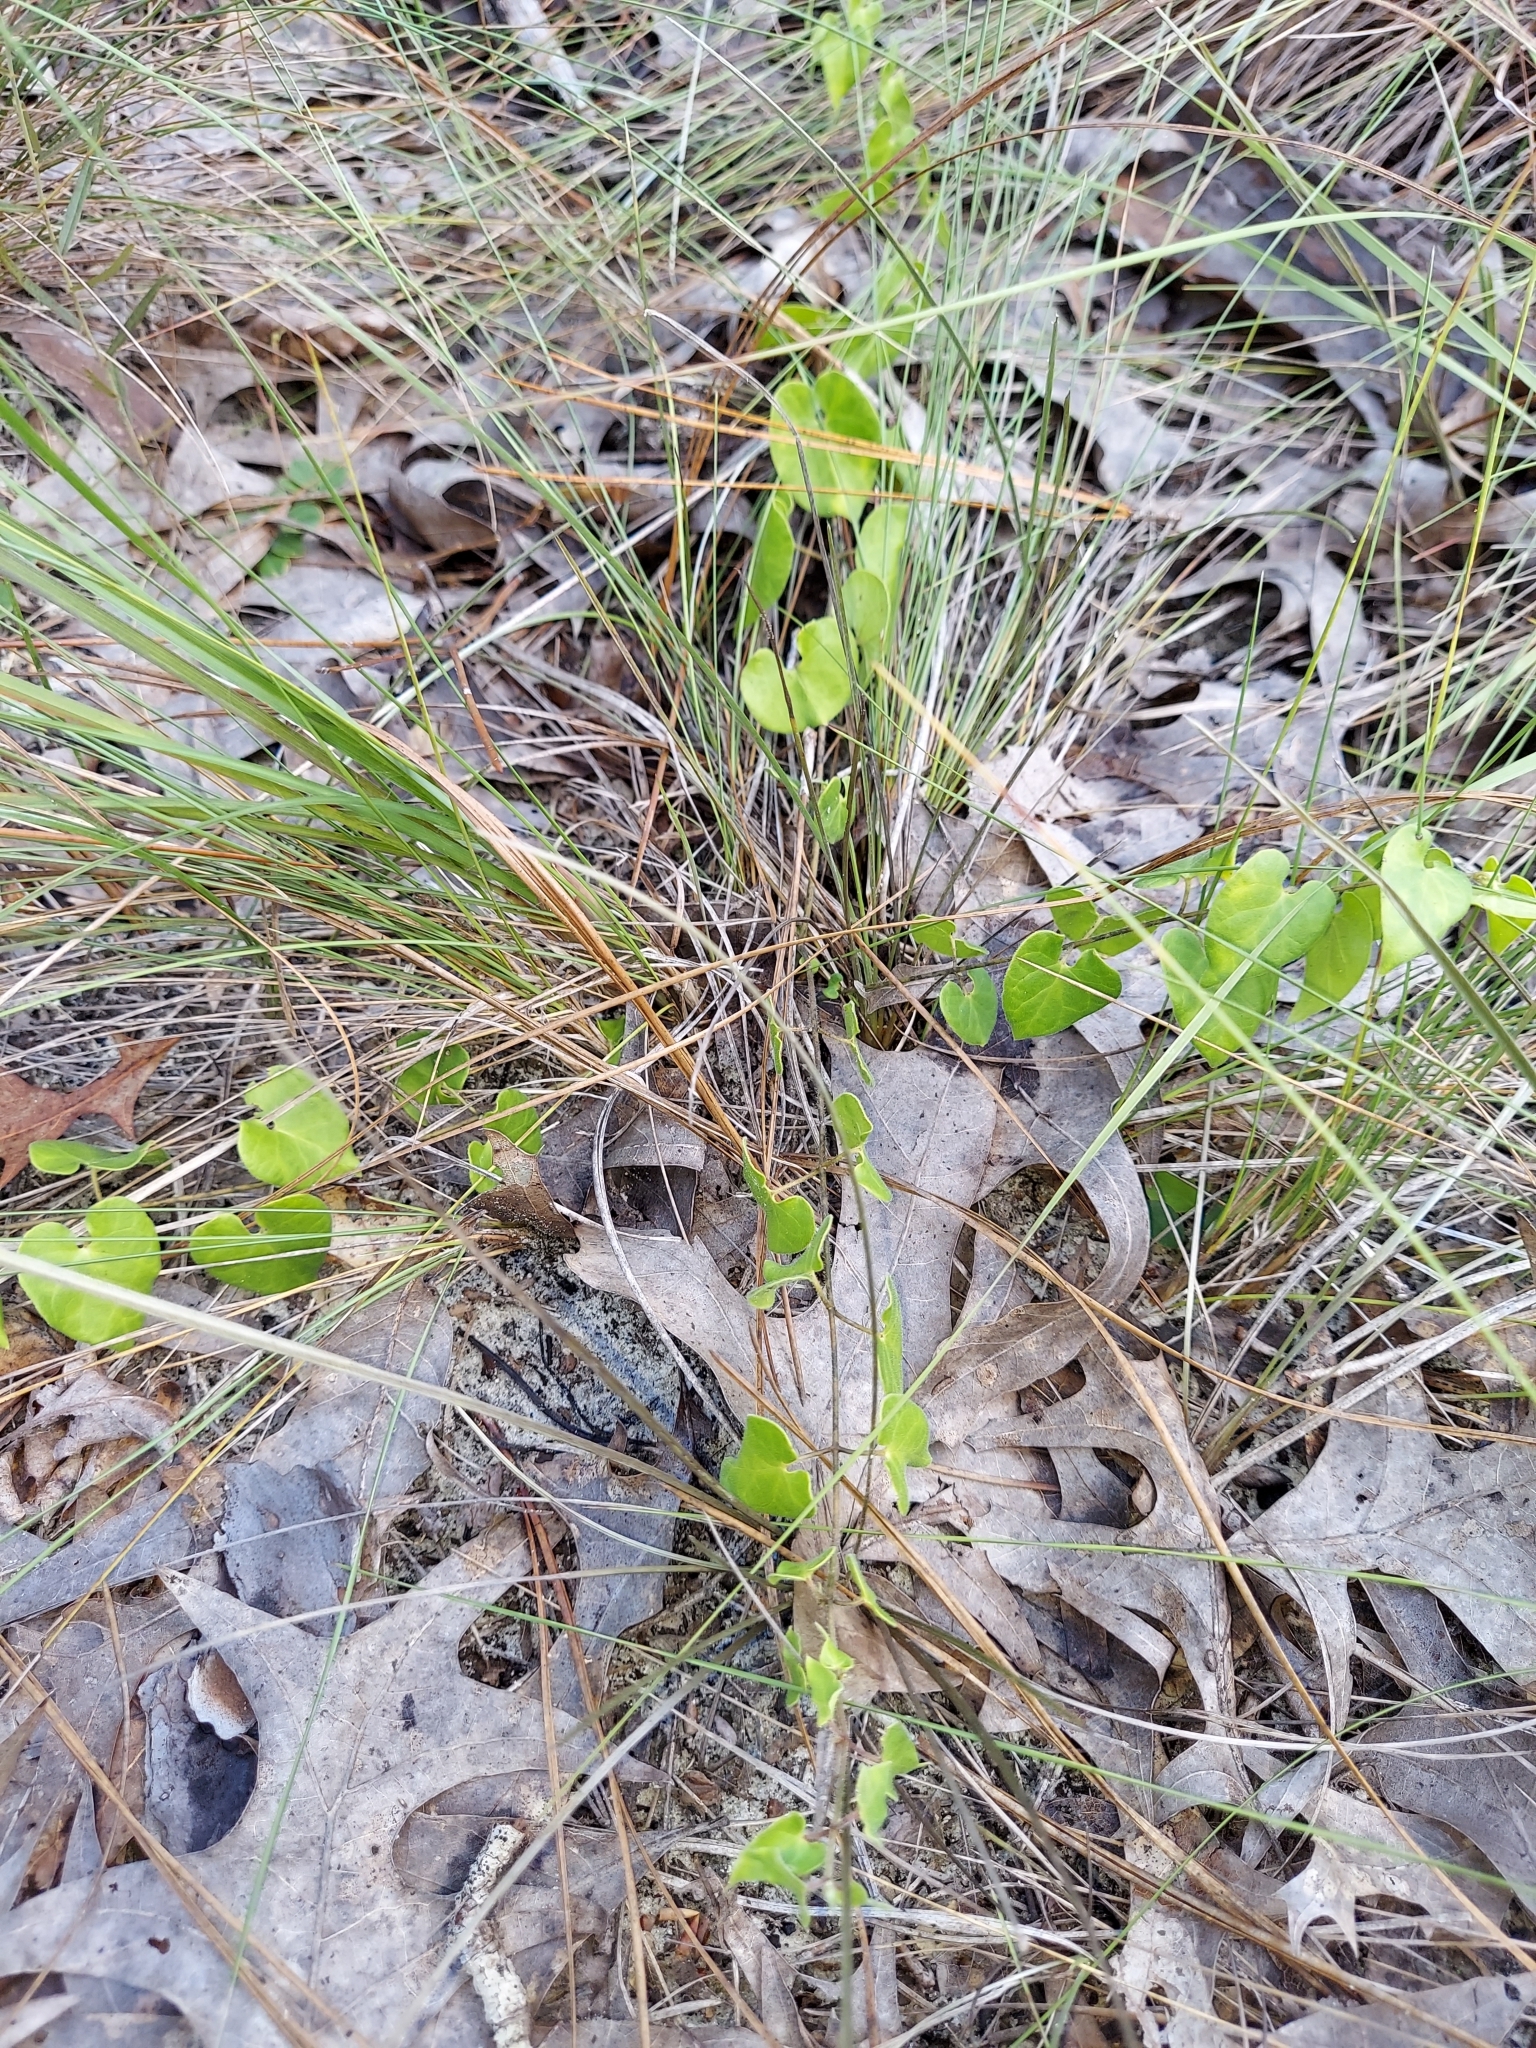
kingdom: Plantae
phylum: Tracheophyta
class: Magnoliopsida
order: Gentianales
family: Apocynaceae
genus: Chthamalia
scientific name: Chthamalia pubiflora
